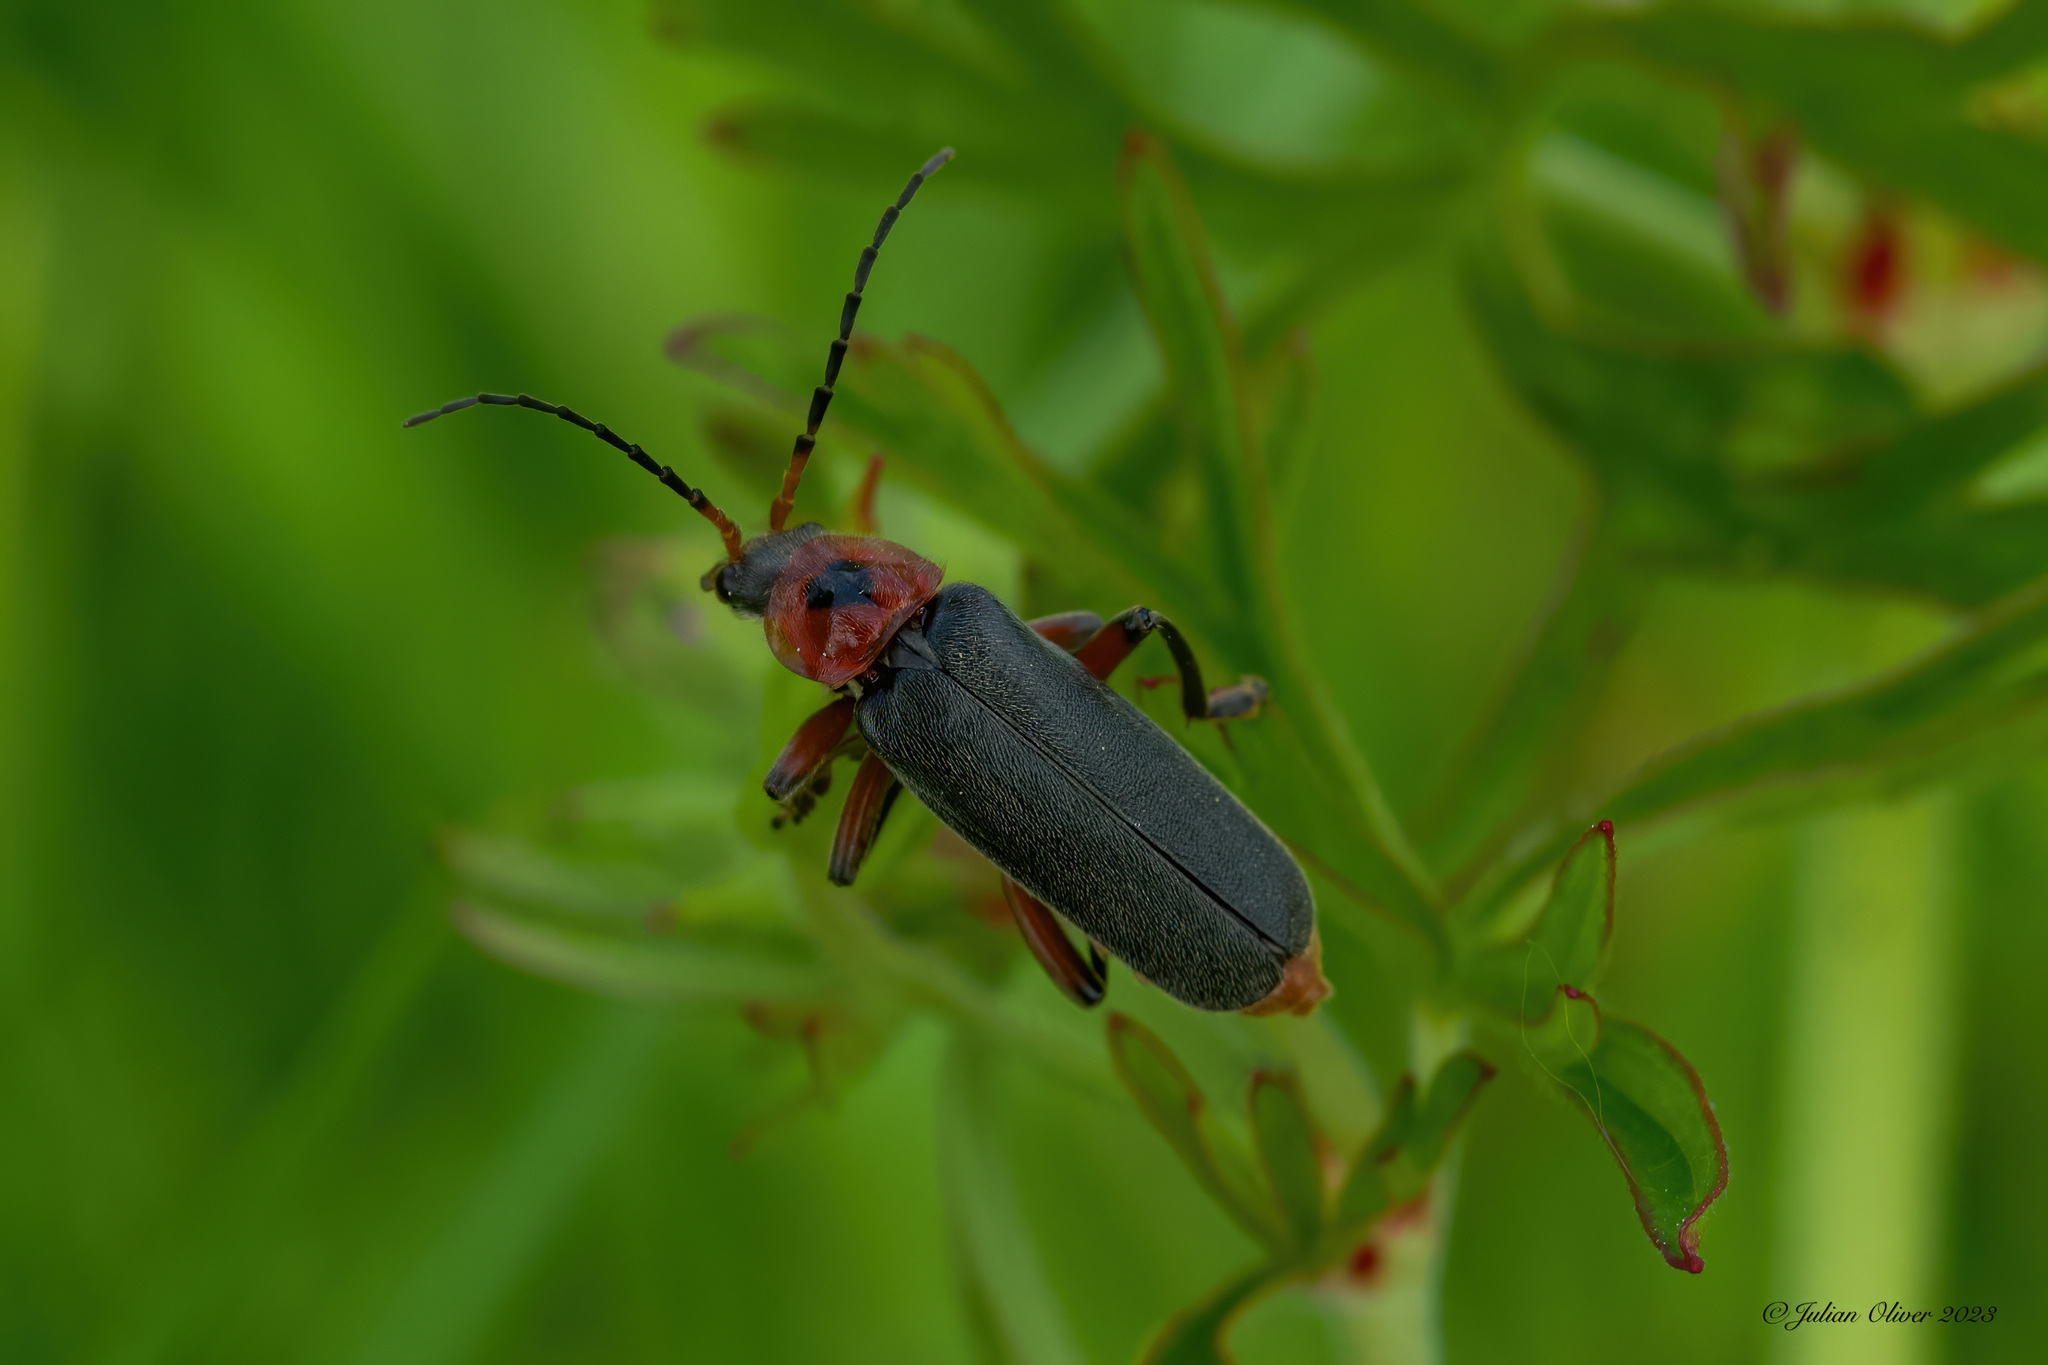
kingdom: Animalia
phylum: Arthropoda
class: Insecta
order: Coleoptera
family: Cantharidae
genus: Cantharis
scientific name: Cantharis rustica
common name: Soldier beetle
